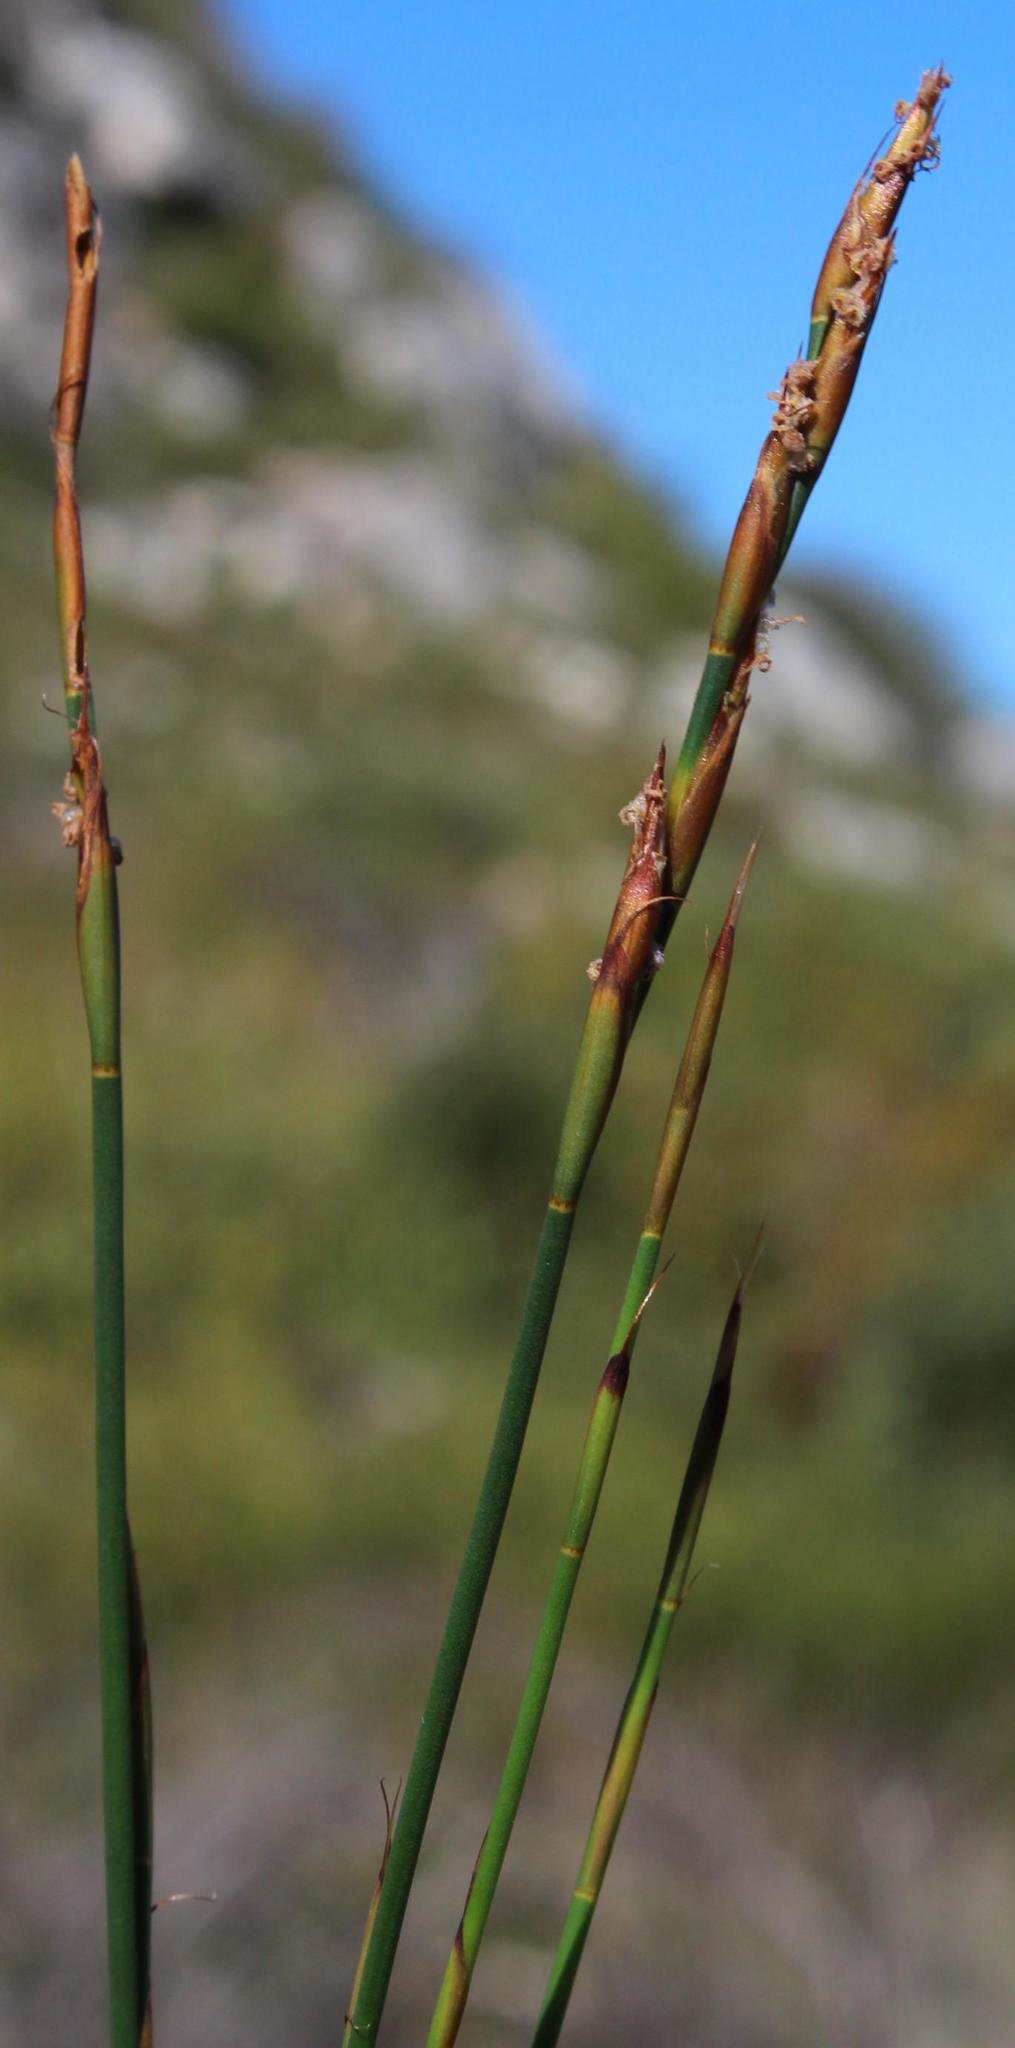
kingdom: Plantae
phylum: Tracheophyta
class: Liliopsida
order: Poales
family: Restionaceae
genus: Cannomois
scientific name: Cannomois virgata
